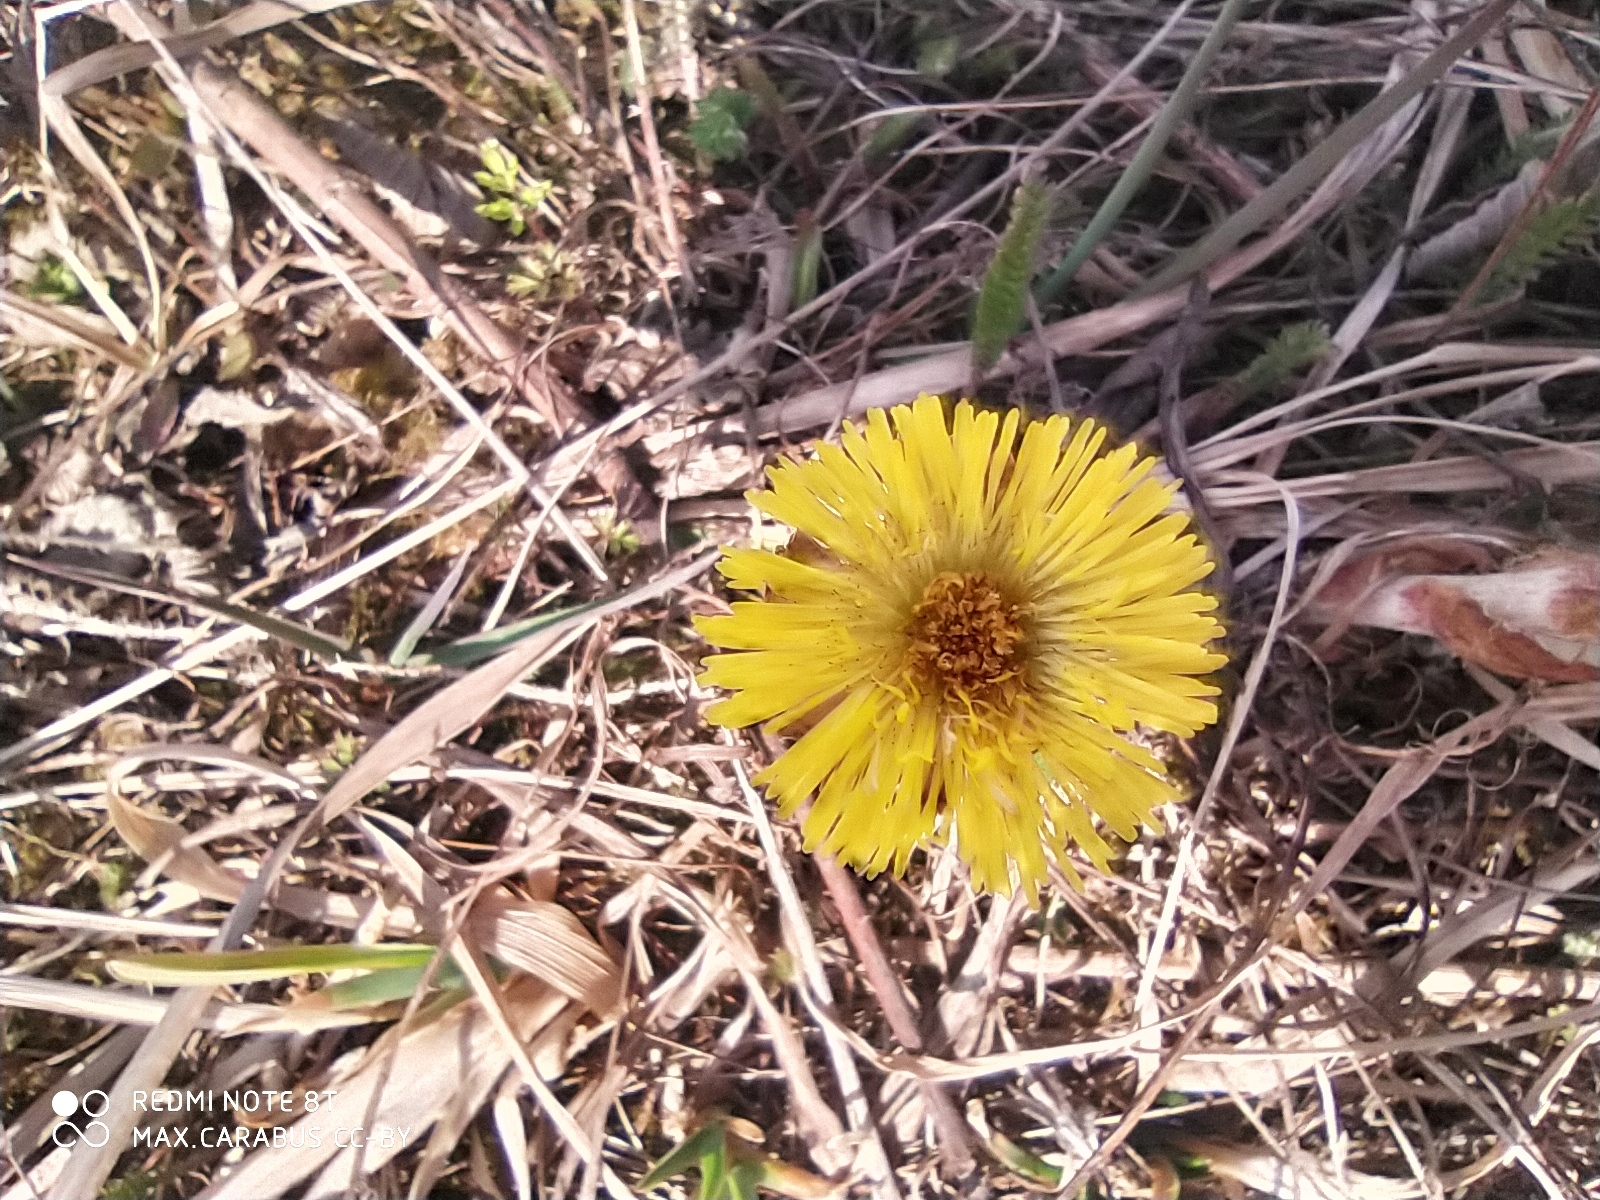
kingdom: Plantae
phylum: Tracheophyta
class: Magnoliopsida
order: Asterales
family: Asteraceae
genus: Tussilago
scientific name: Tussilago farfara
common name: Coltsfoot
